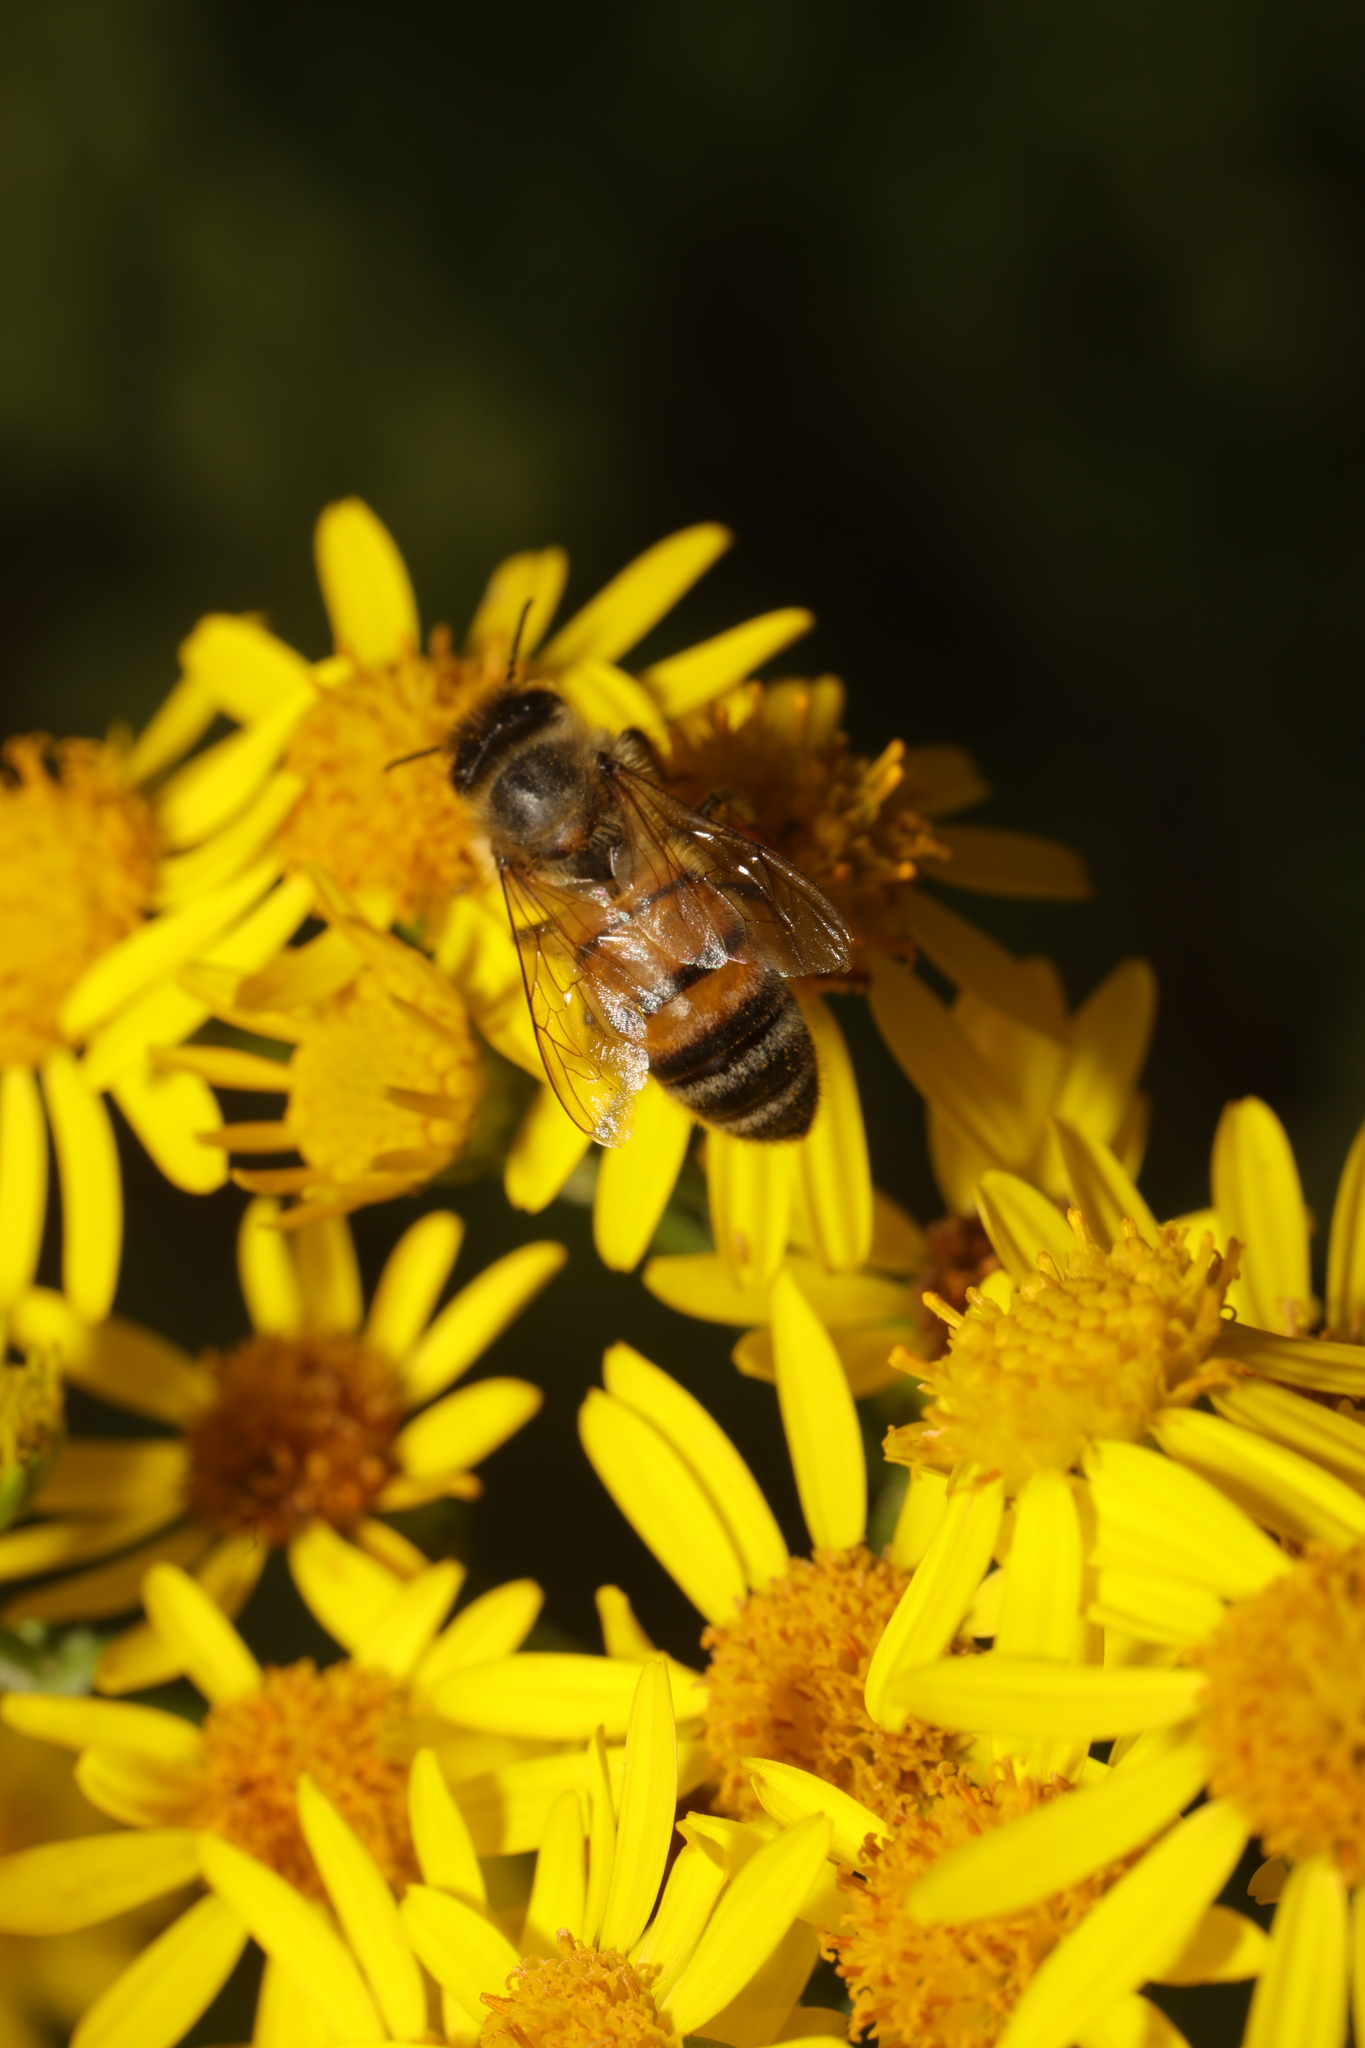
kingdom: Animalia
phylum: Arthropoda
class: Insecta
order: Hymenoptera
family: Apidae
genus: Apis
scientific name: Apis mellifera
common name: Honey bee
